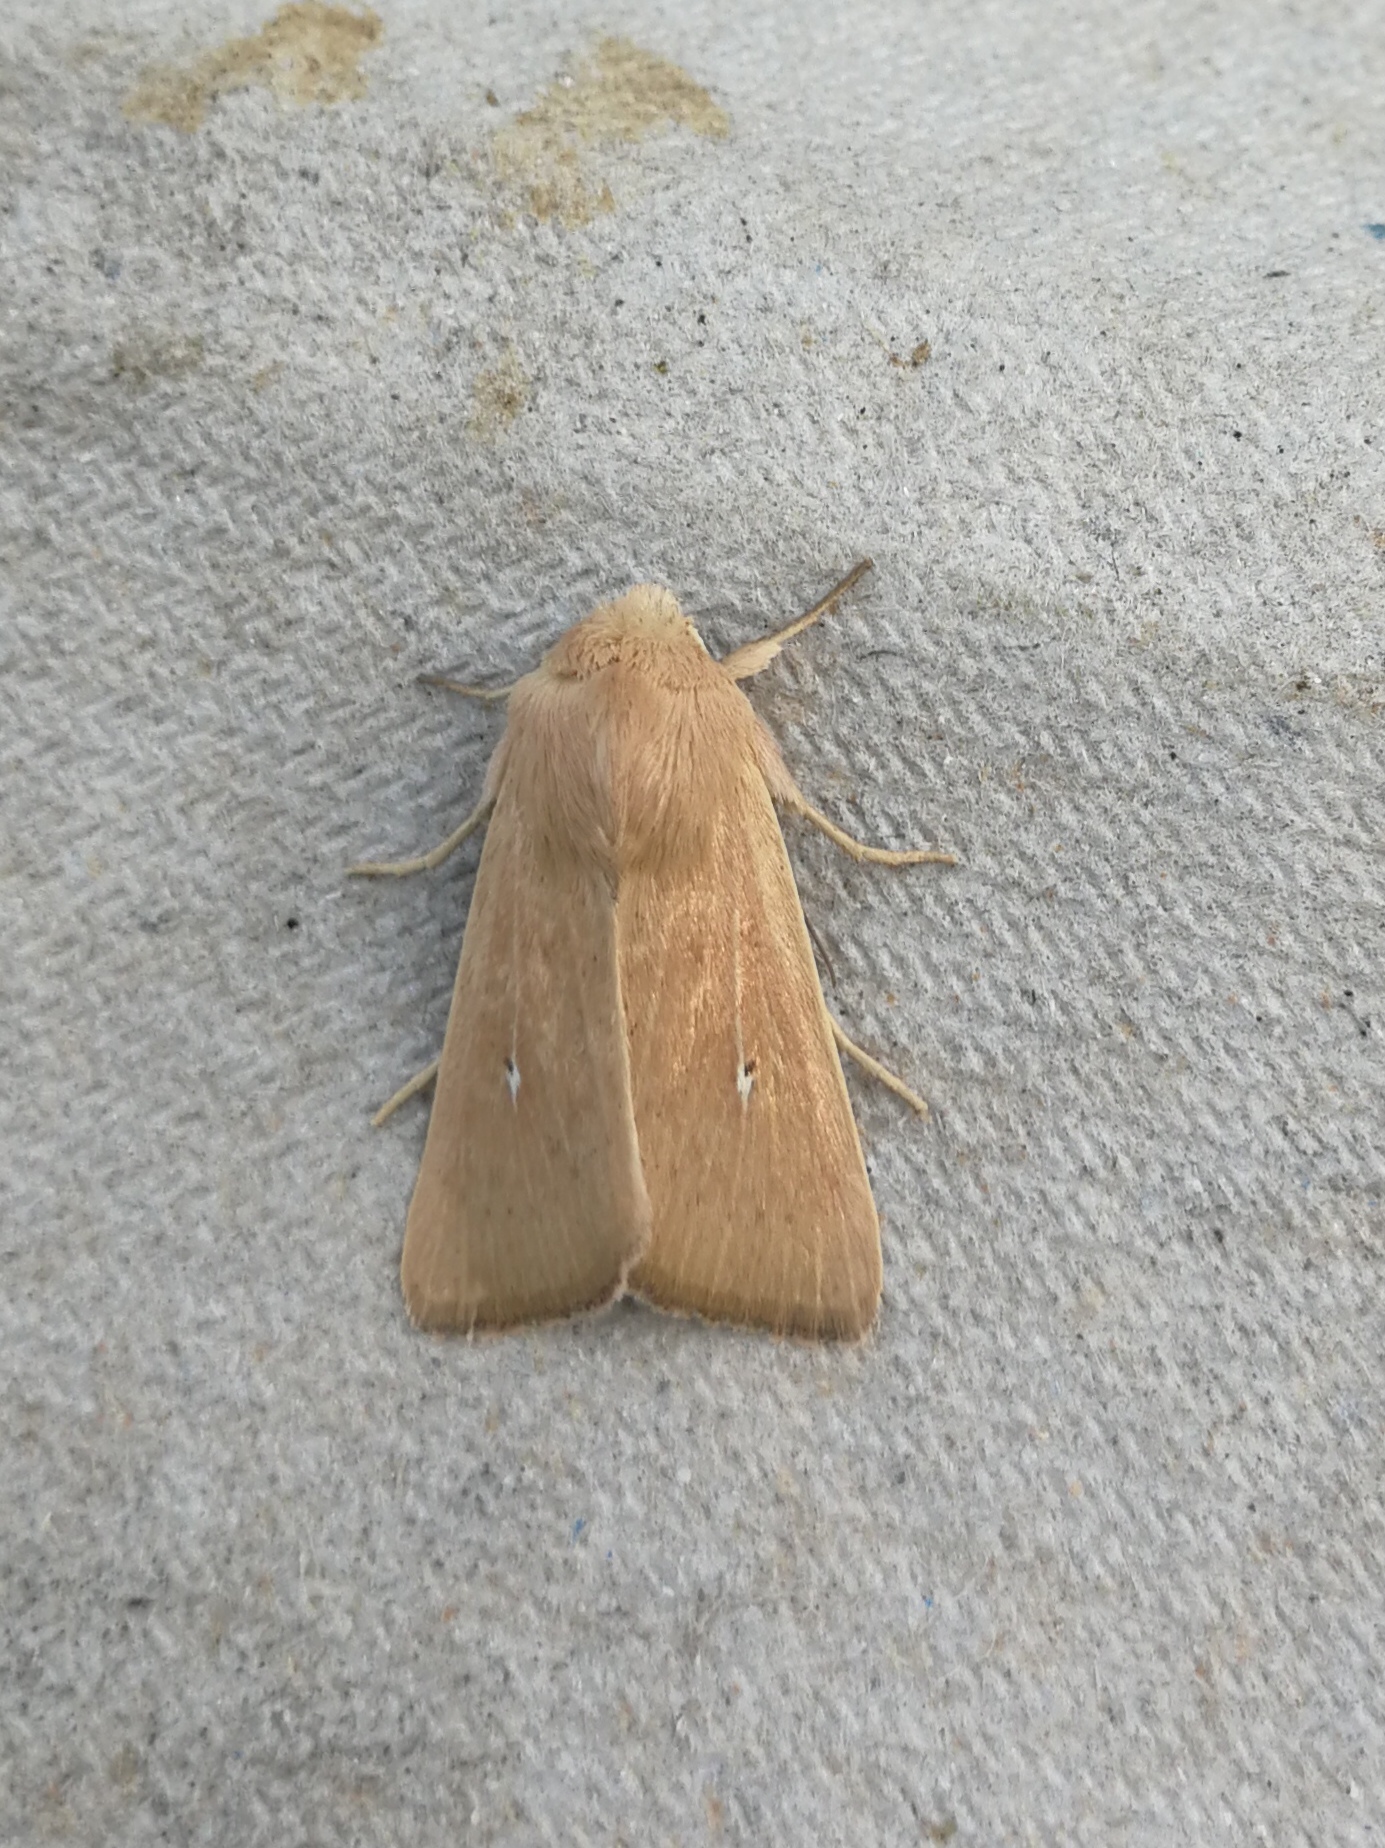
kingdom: Animalia
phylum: Arthropoda
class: Insecta
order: Lepidoptera
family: Noctuidae
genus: Mythimna
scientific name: Mythimna sicula
